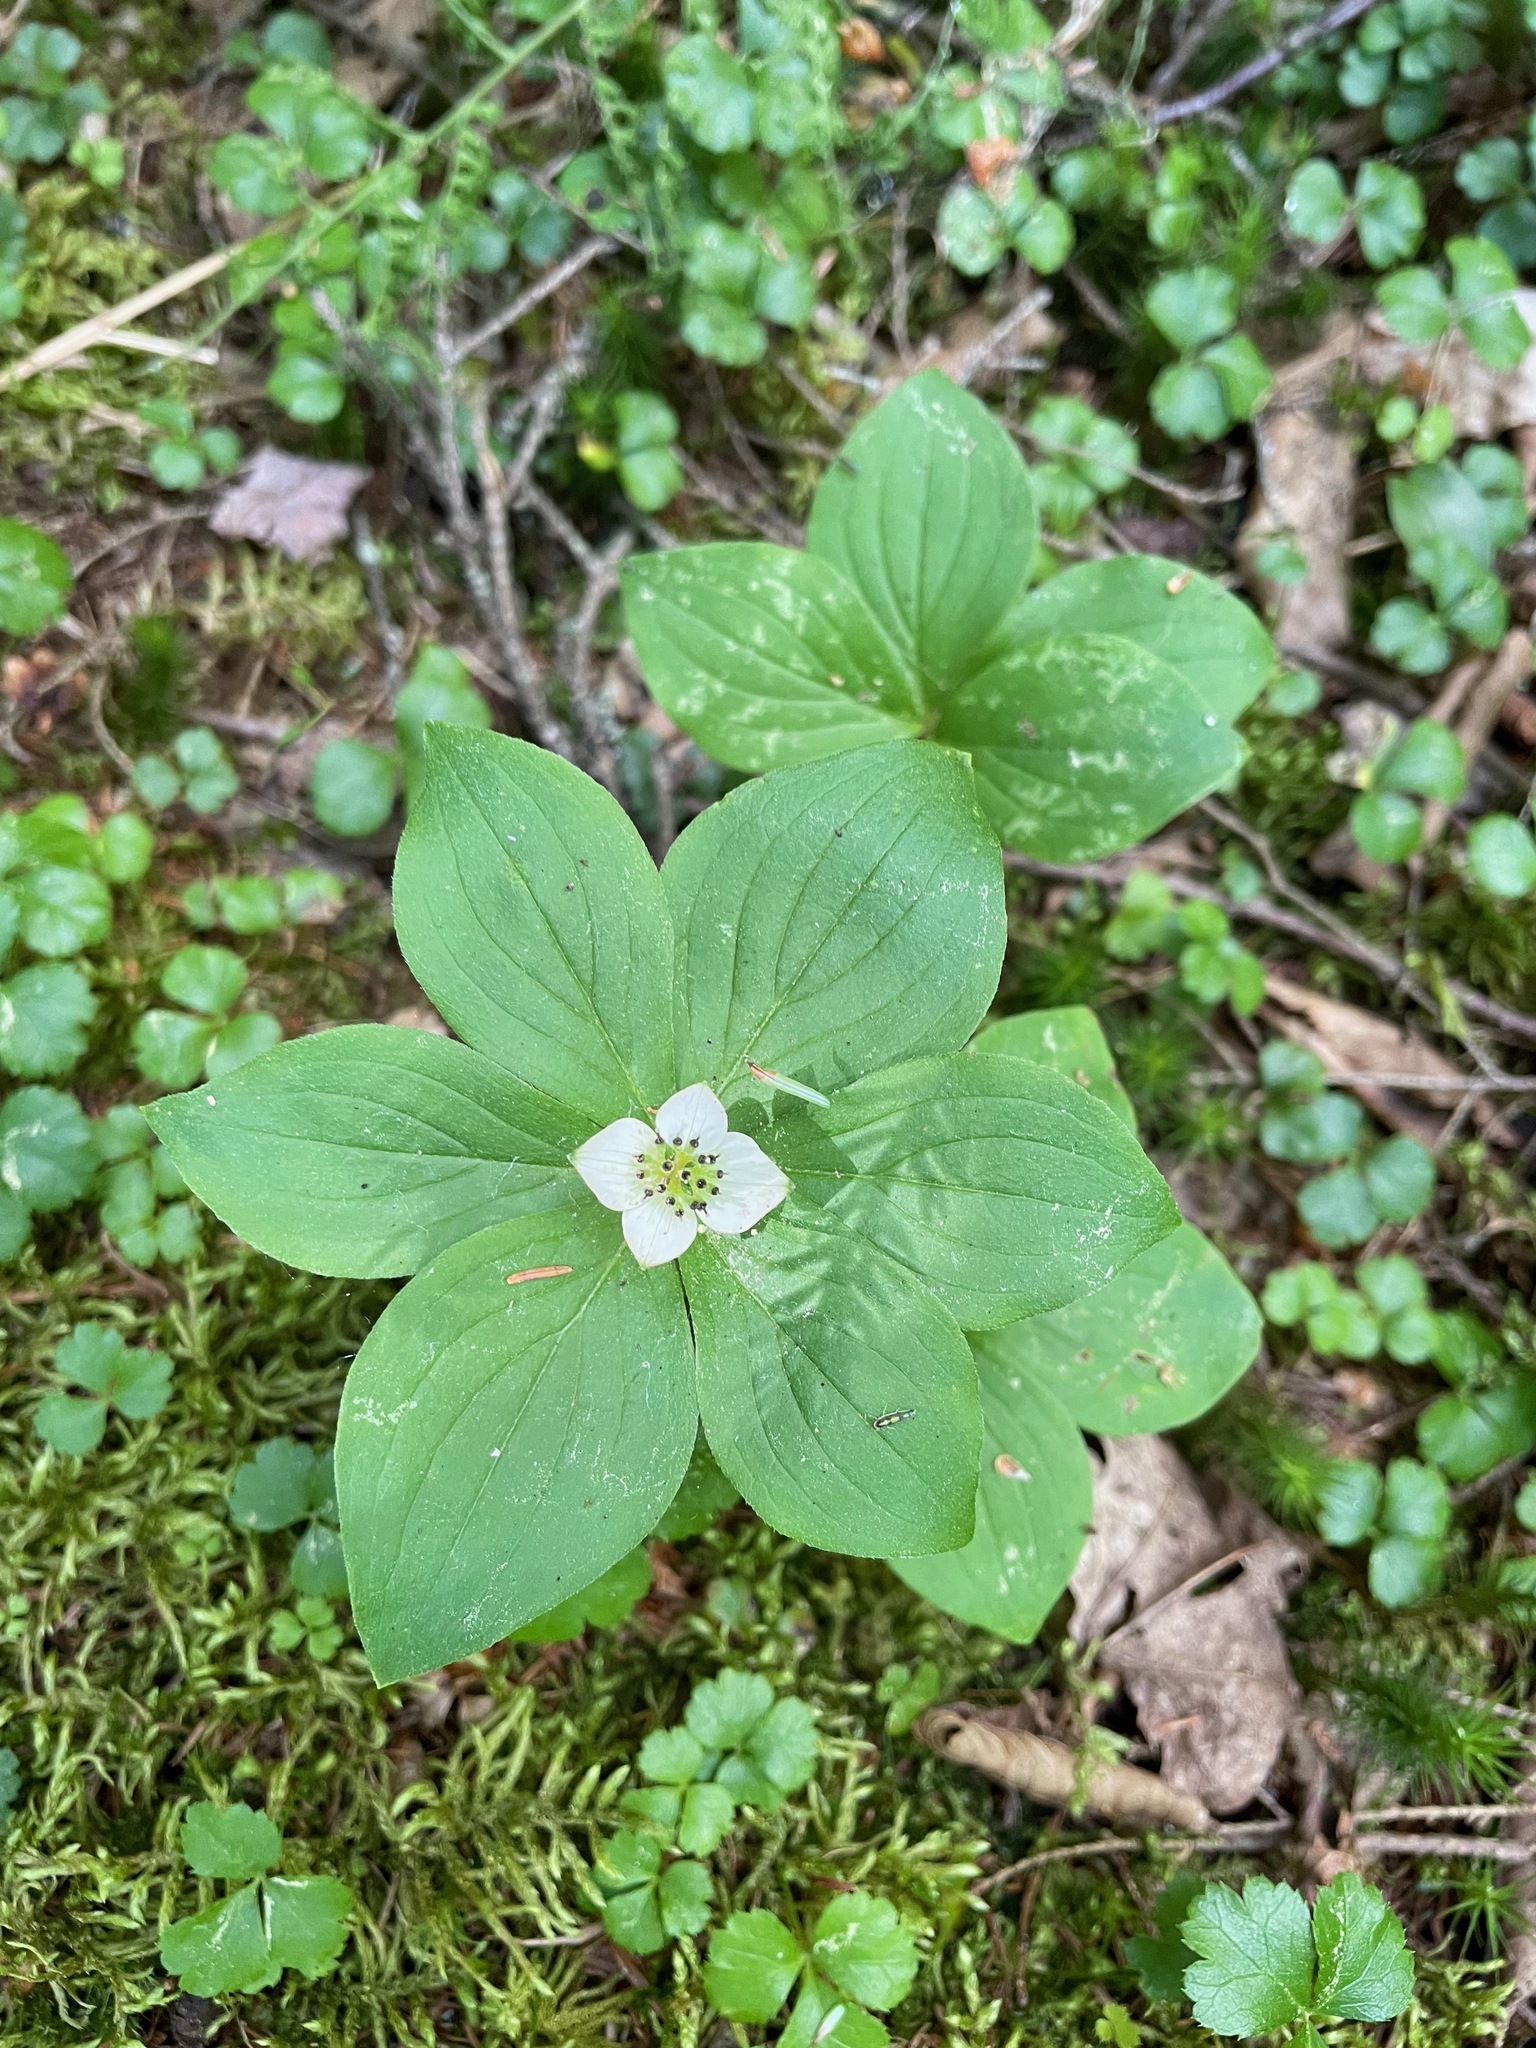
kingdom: Plantae
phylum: Tracheophyta
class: Magnoliopsida
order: Cornales
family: Cornaceae
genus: Cornus
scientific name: Cornus canadensis
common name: Creeping dogwood
